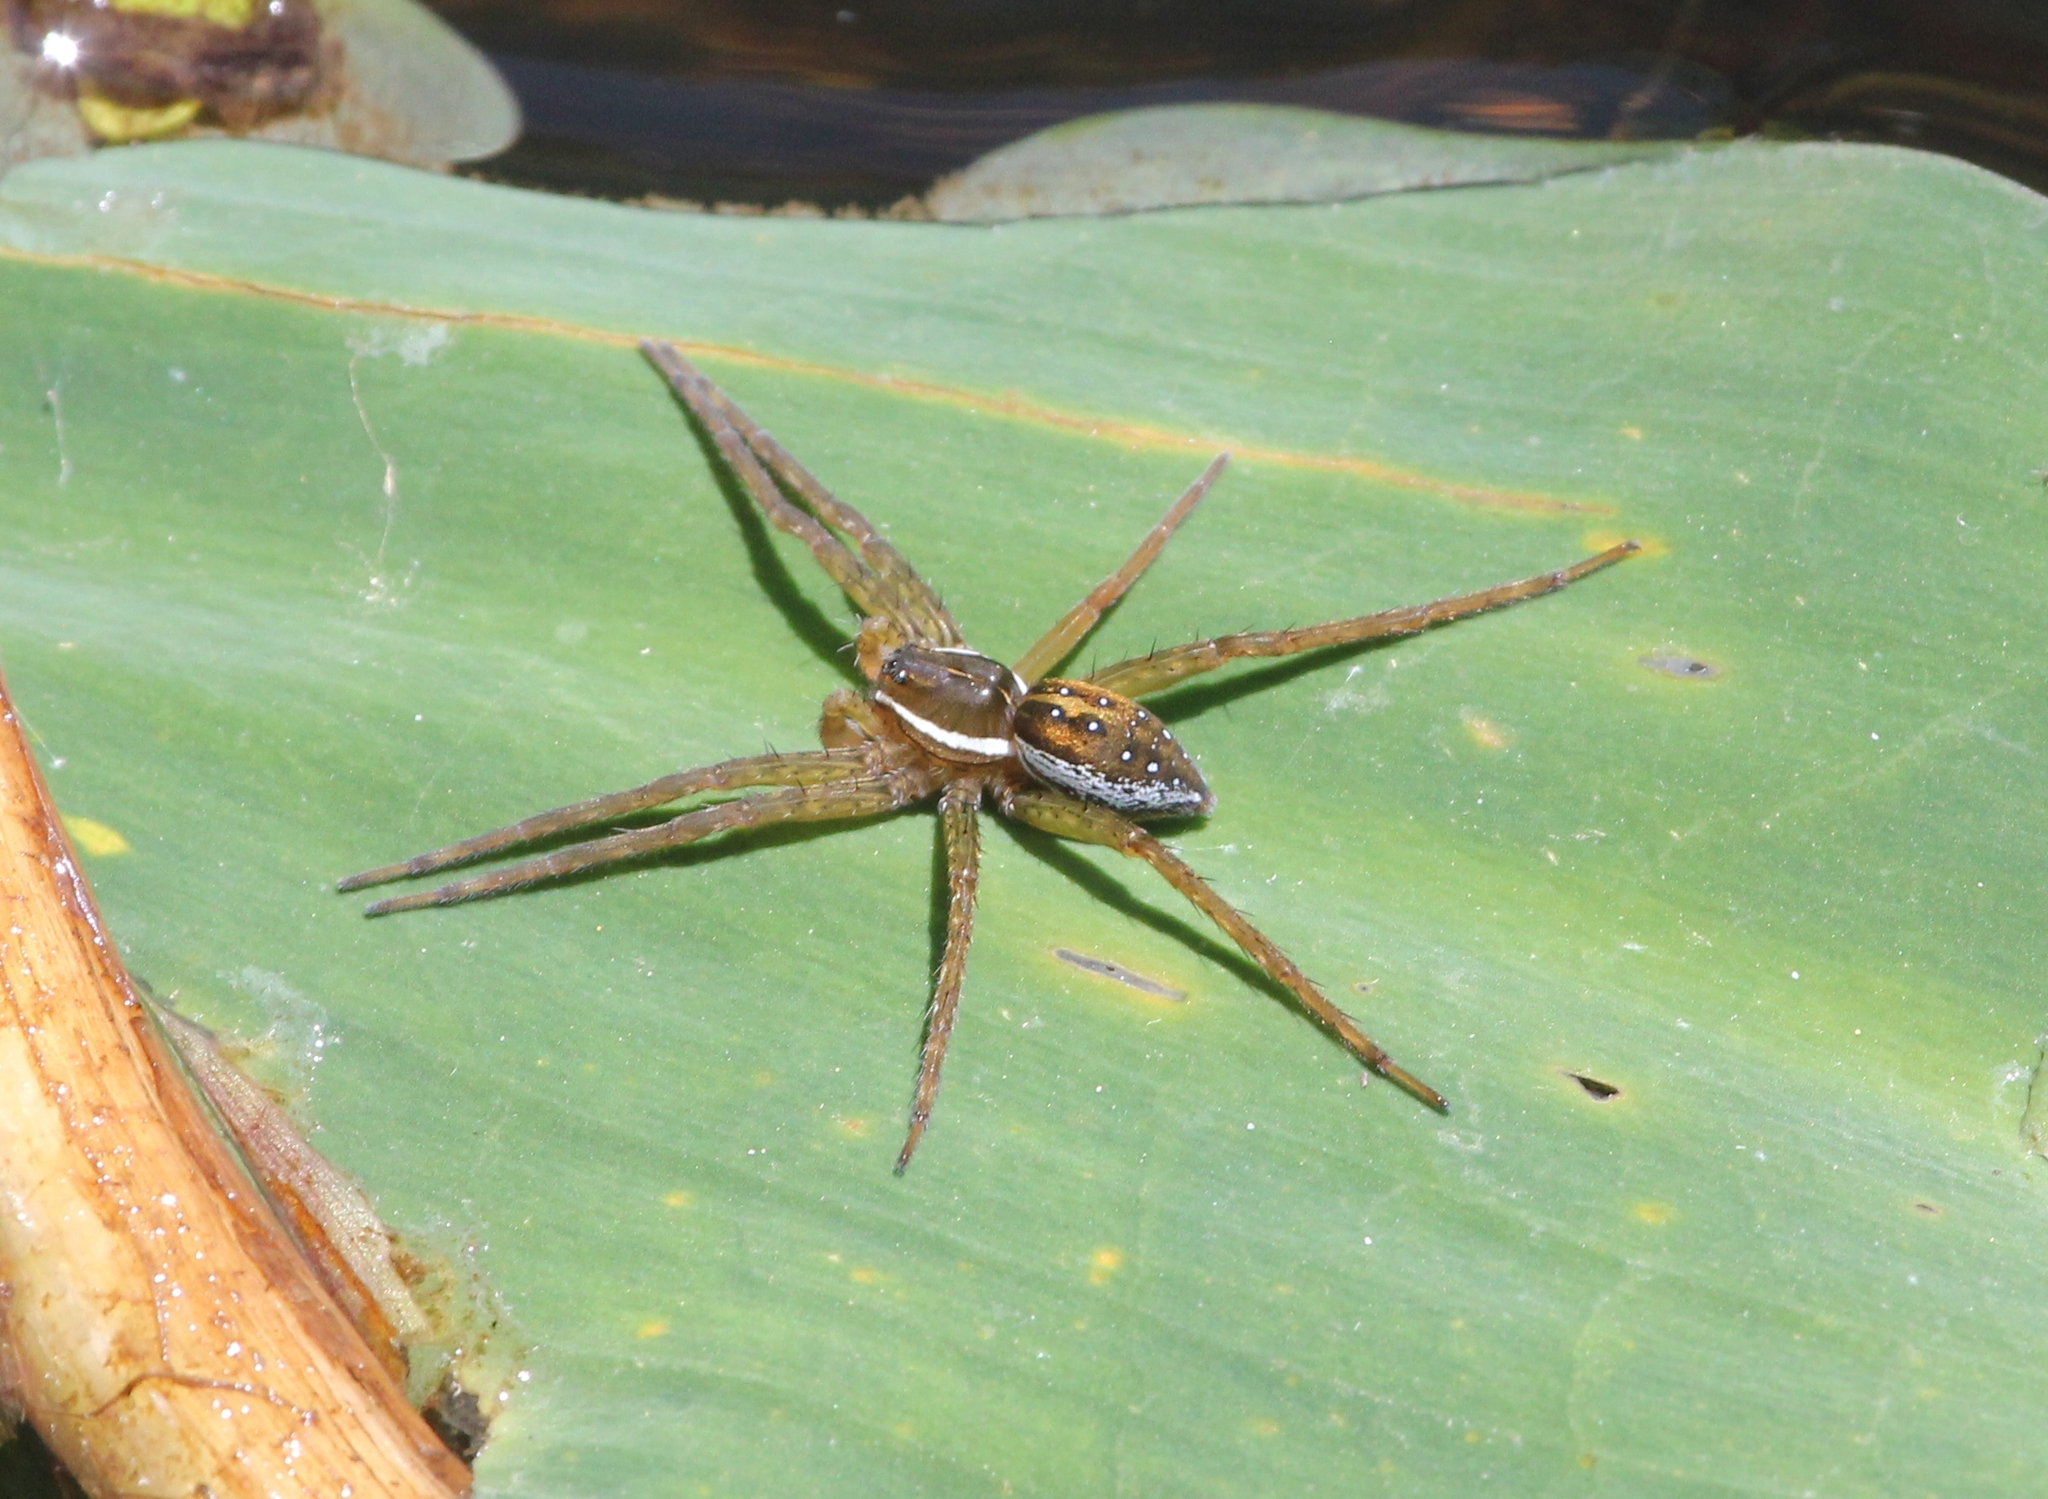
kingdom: Animalia
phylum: Arthropoda
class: Arachnida
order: Araneae
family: Pisauridae
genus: Dolomedes
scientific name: Dolomedes triton
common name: Six-spotted fishing spider
